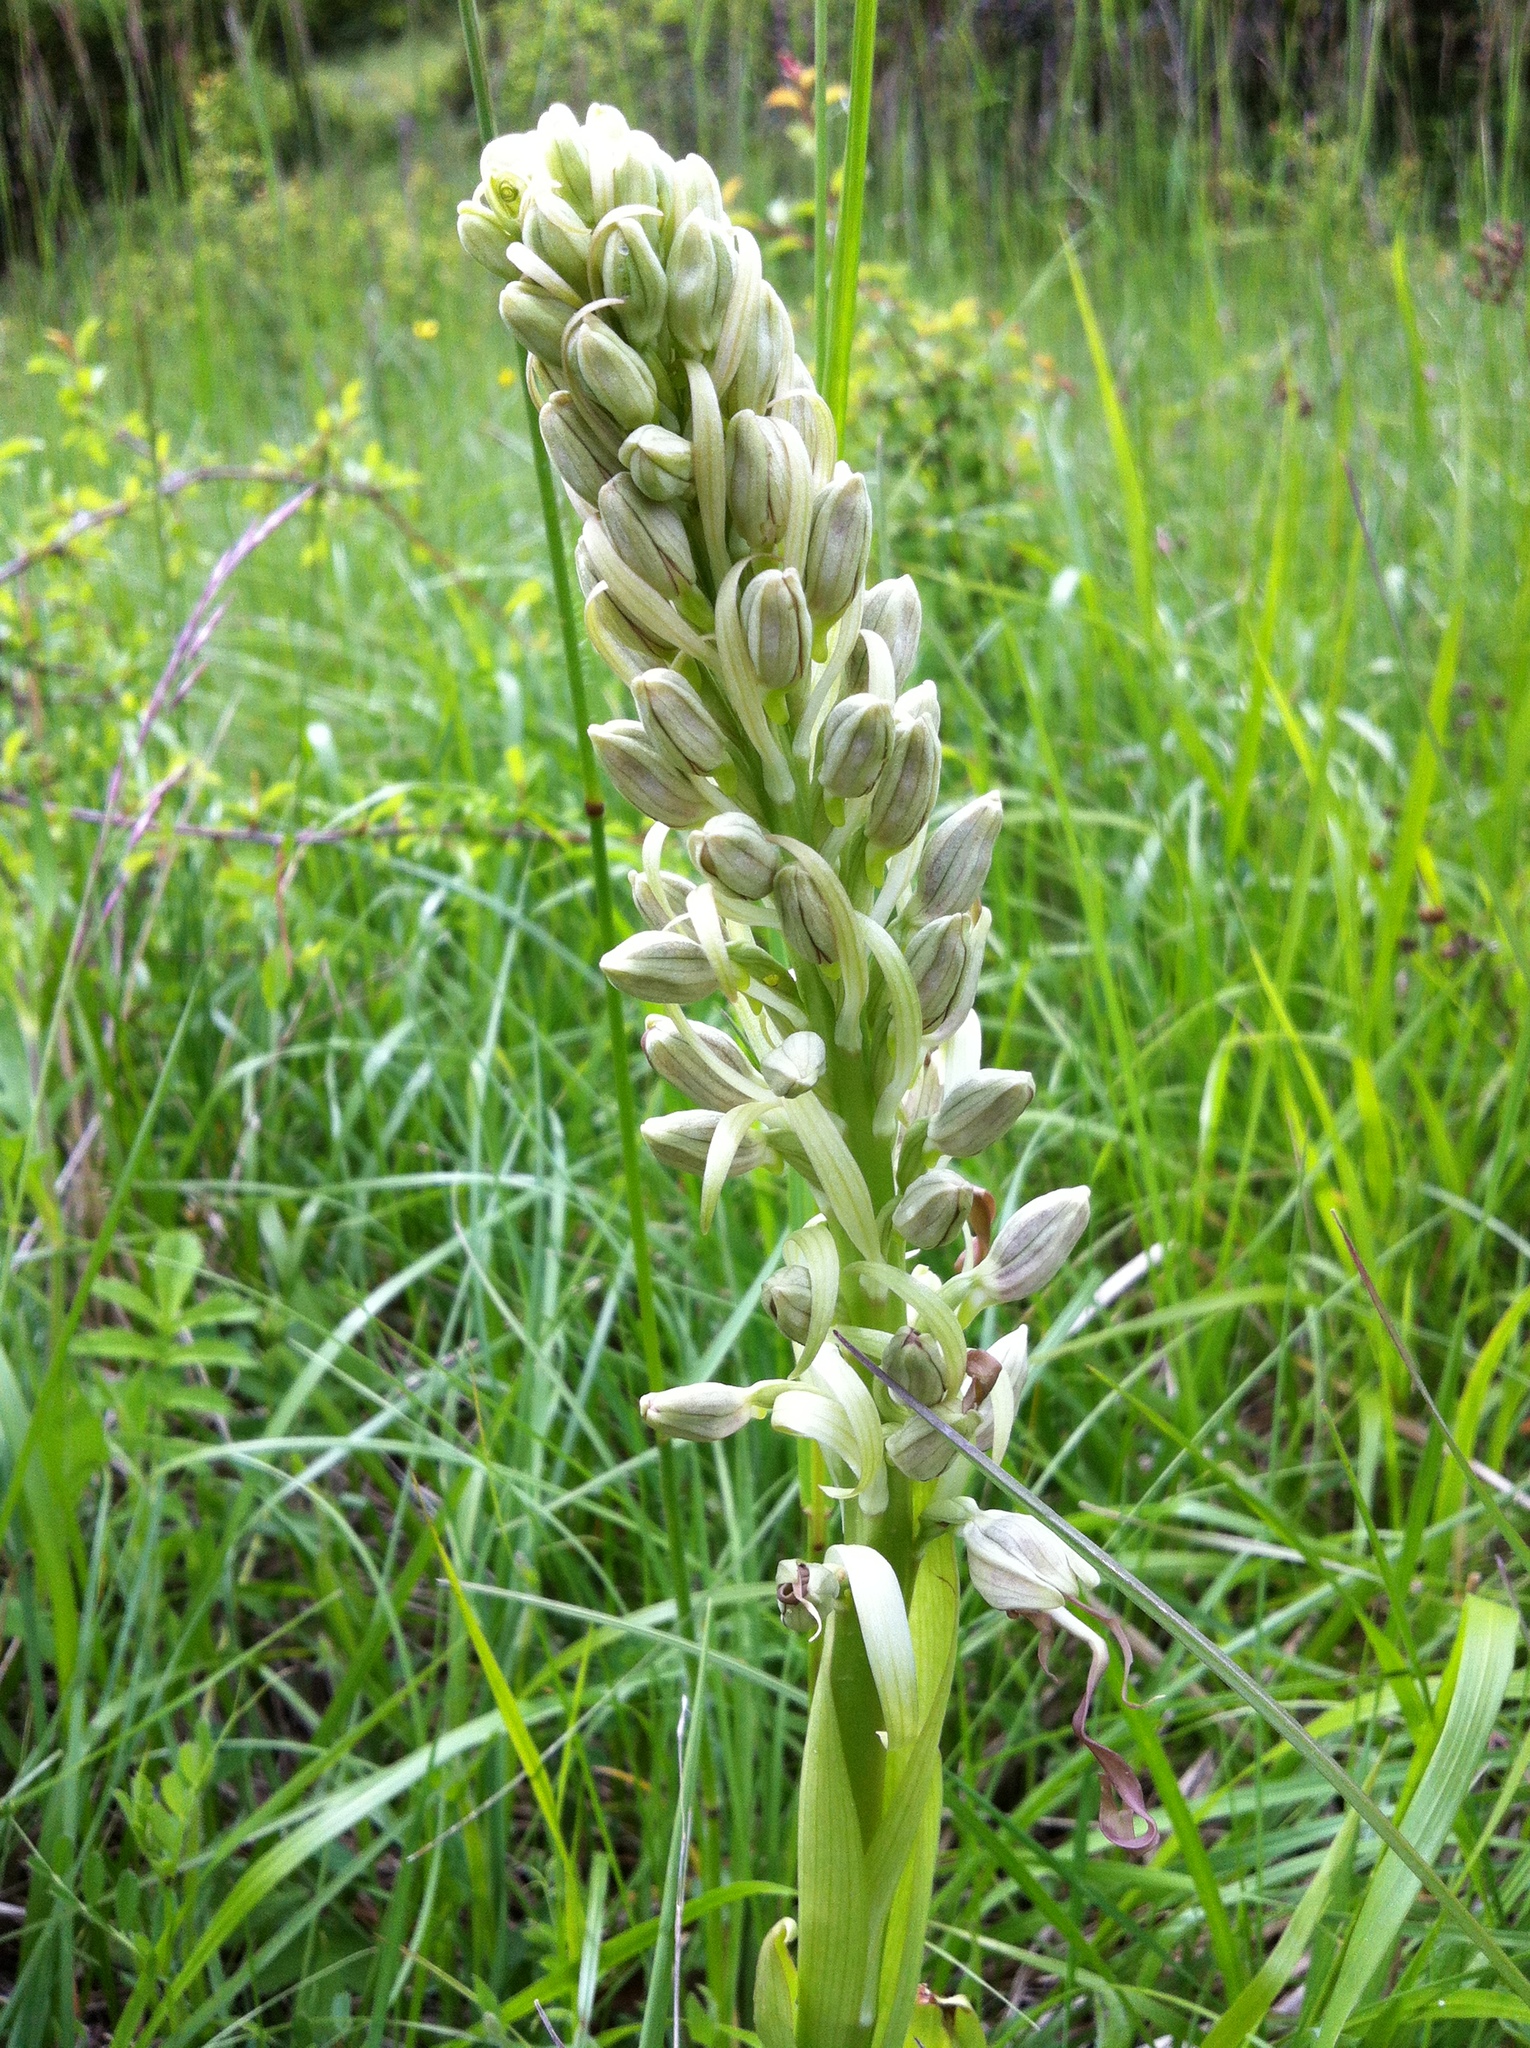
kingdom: Plantae
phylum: Tracheophyta
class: Liliopsida
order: Asparagales
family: Orchidaceae
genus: Himantoglossum
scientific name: Himantoglossum hircinum
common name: Lizard orchid
